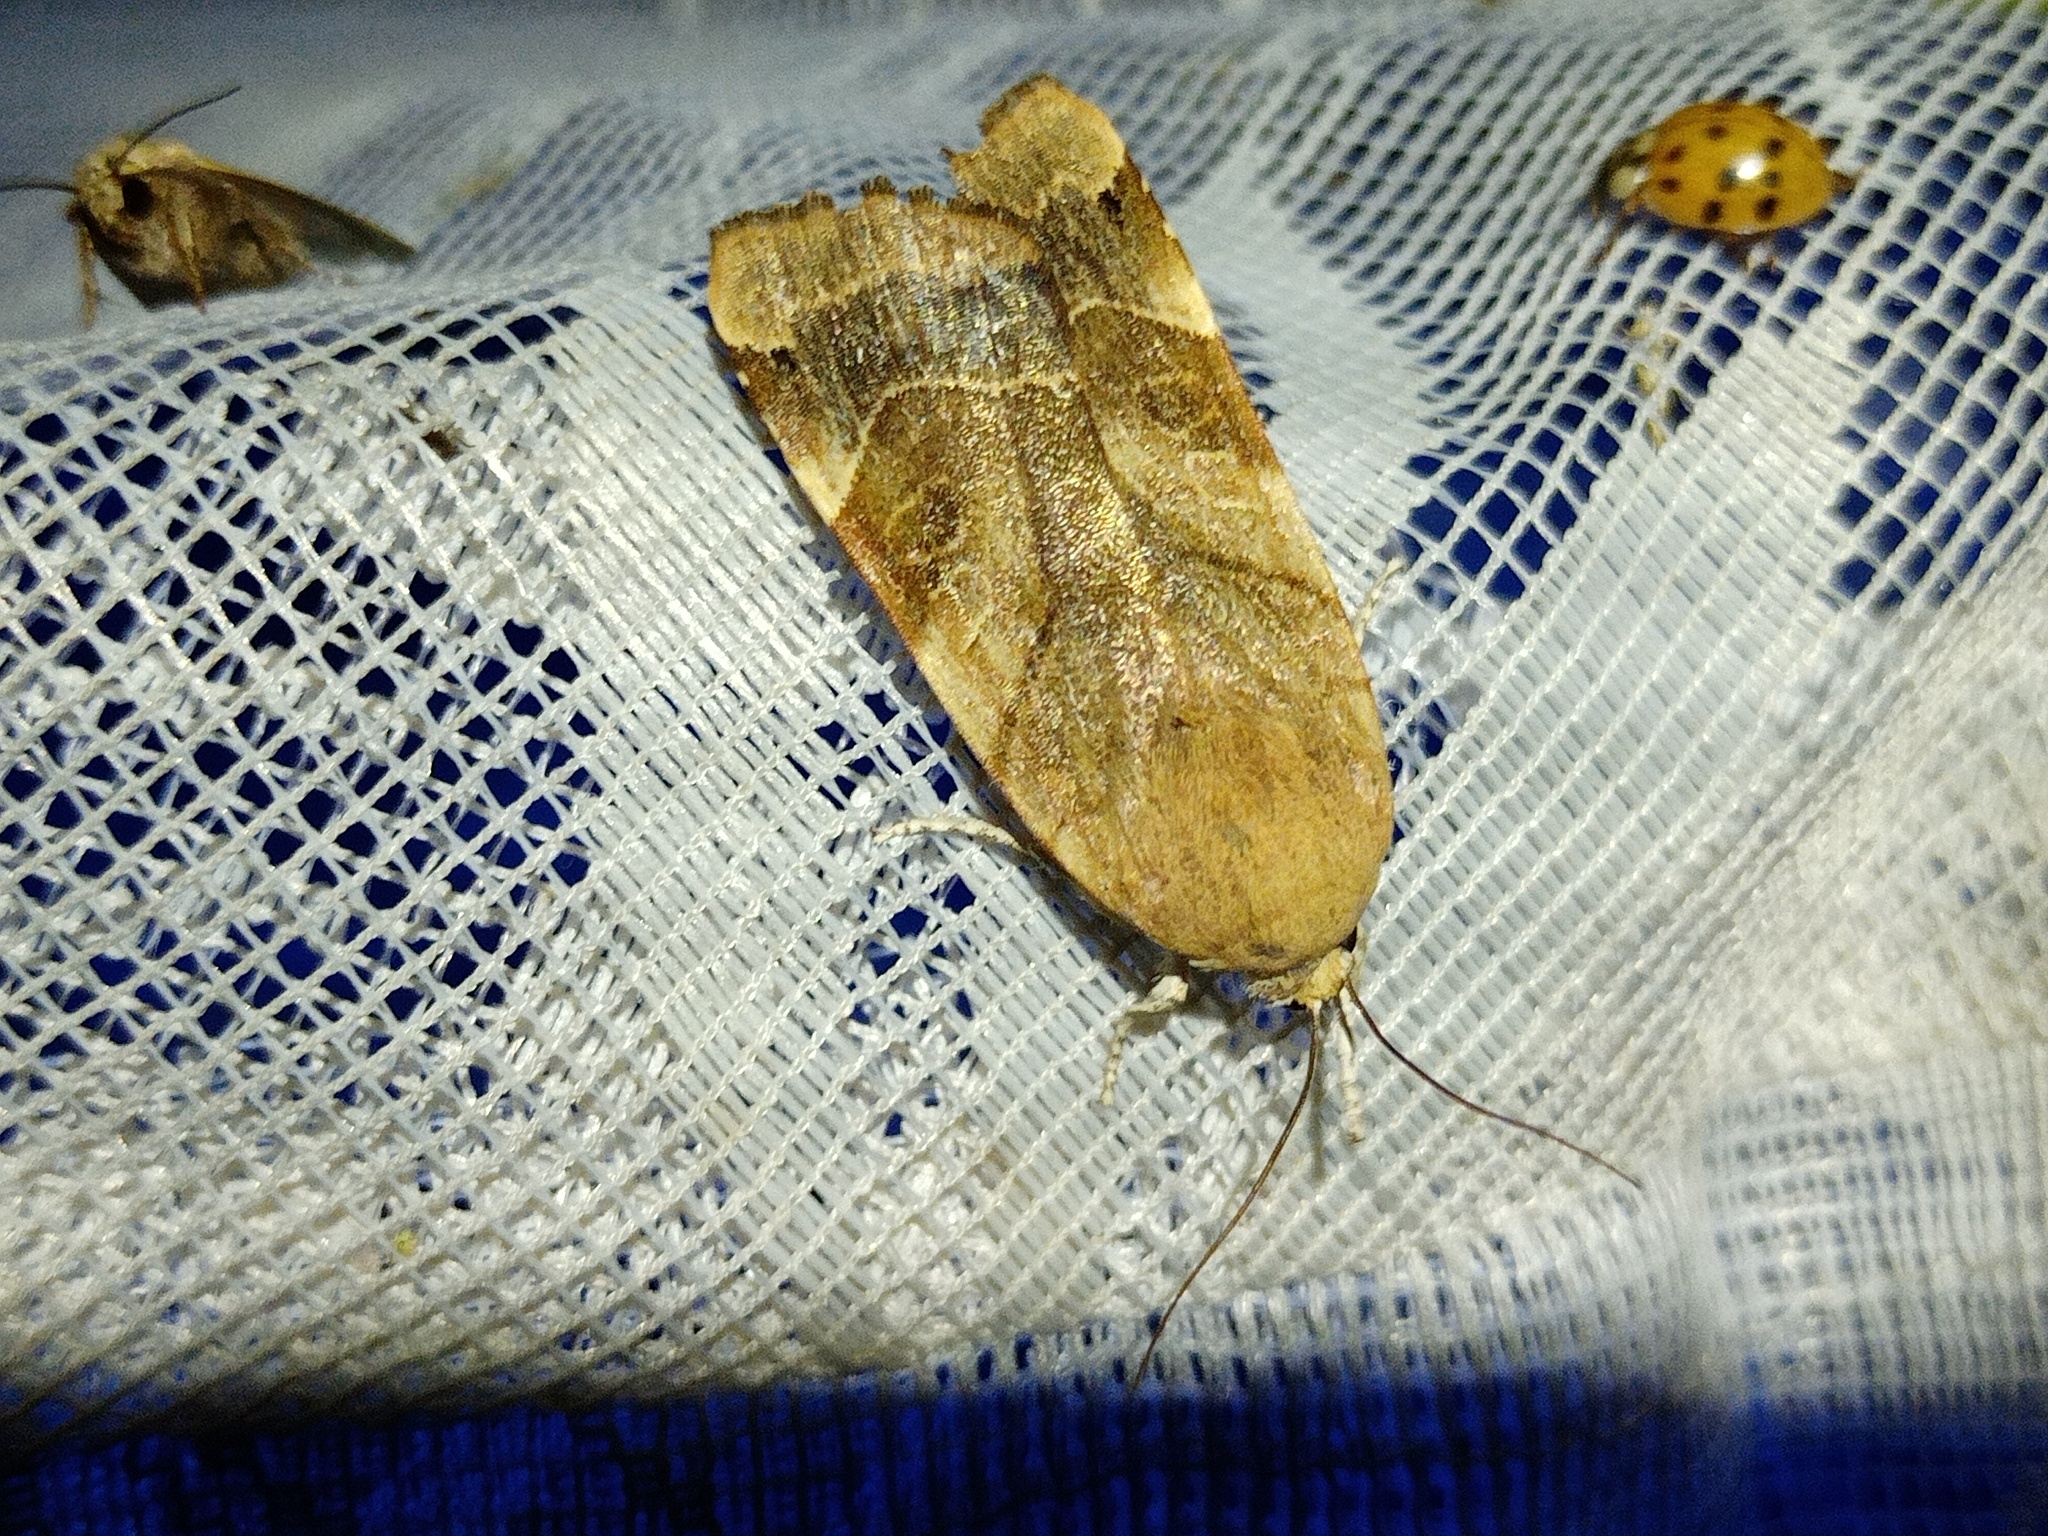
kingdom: Animalia
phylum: Arthropoda
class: Insecta
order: Lepidoptera
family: Noctuidae
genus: Noctua
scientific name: Noctua fimbriata
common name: Broad-bordered yellow underwing
